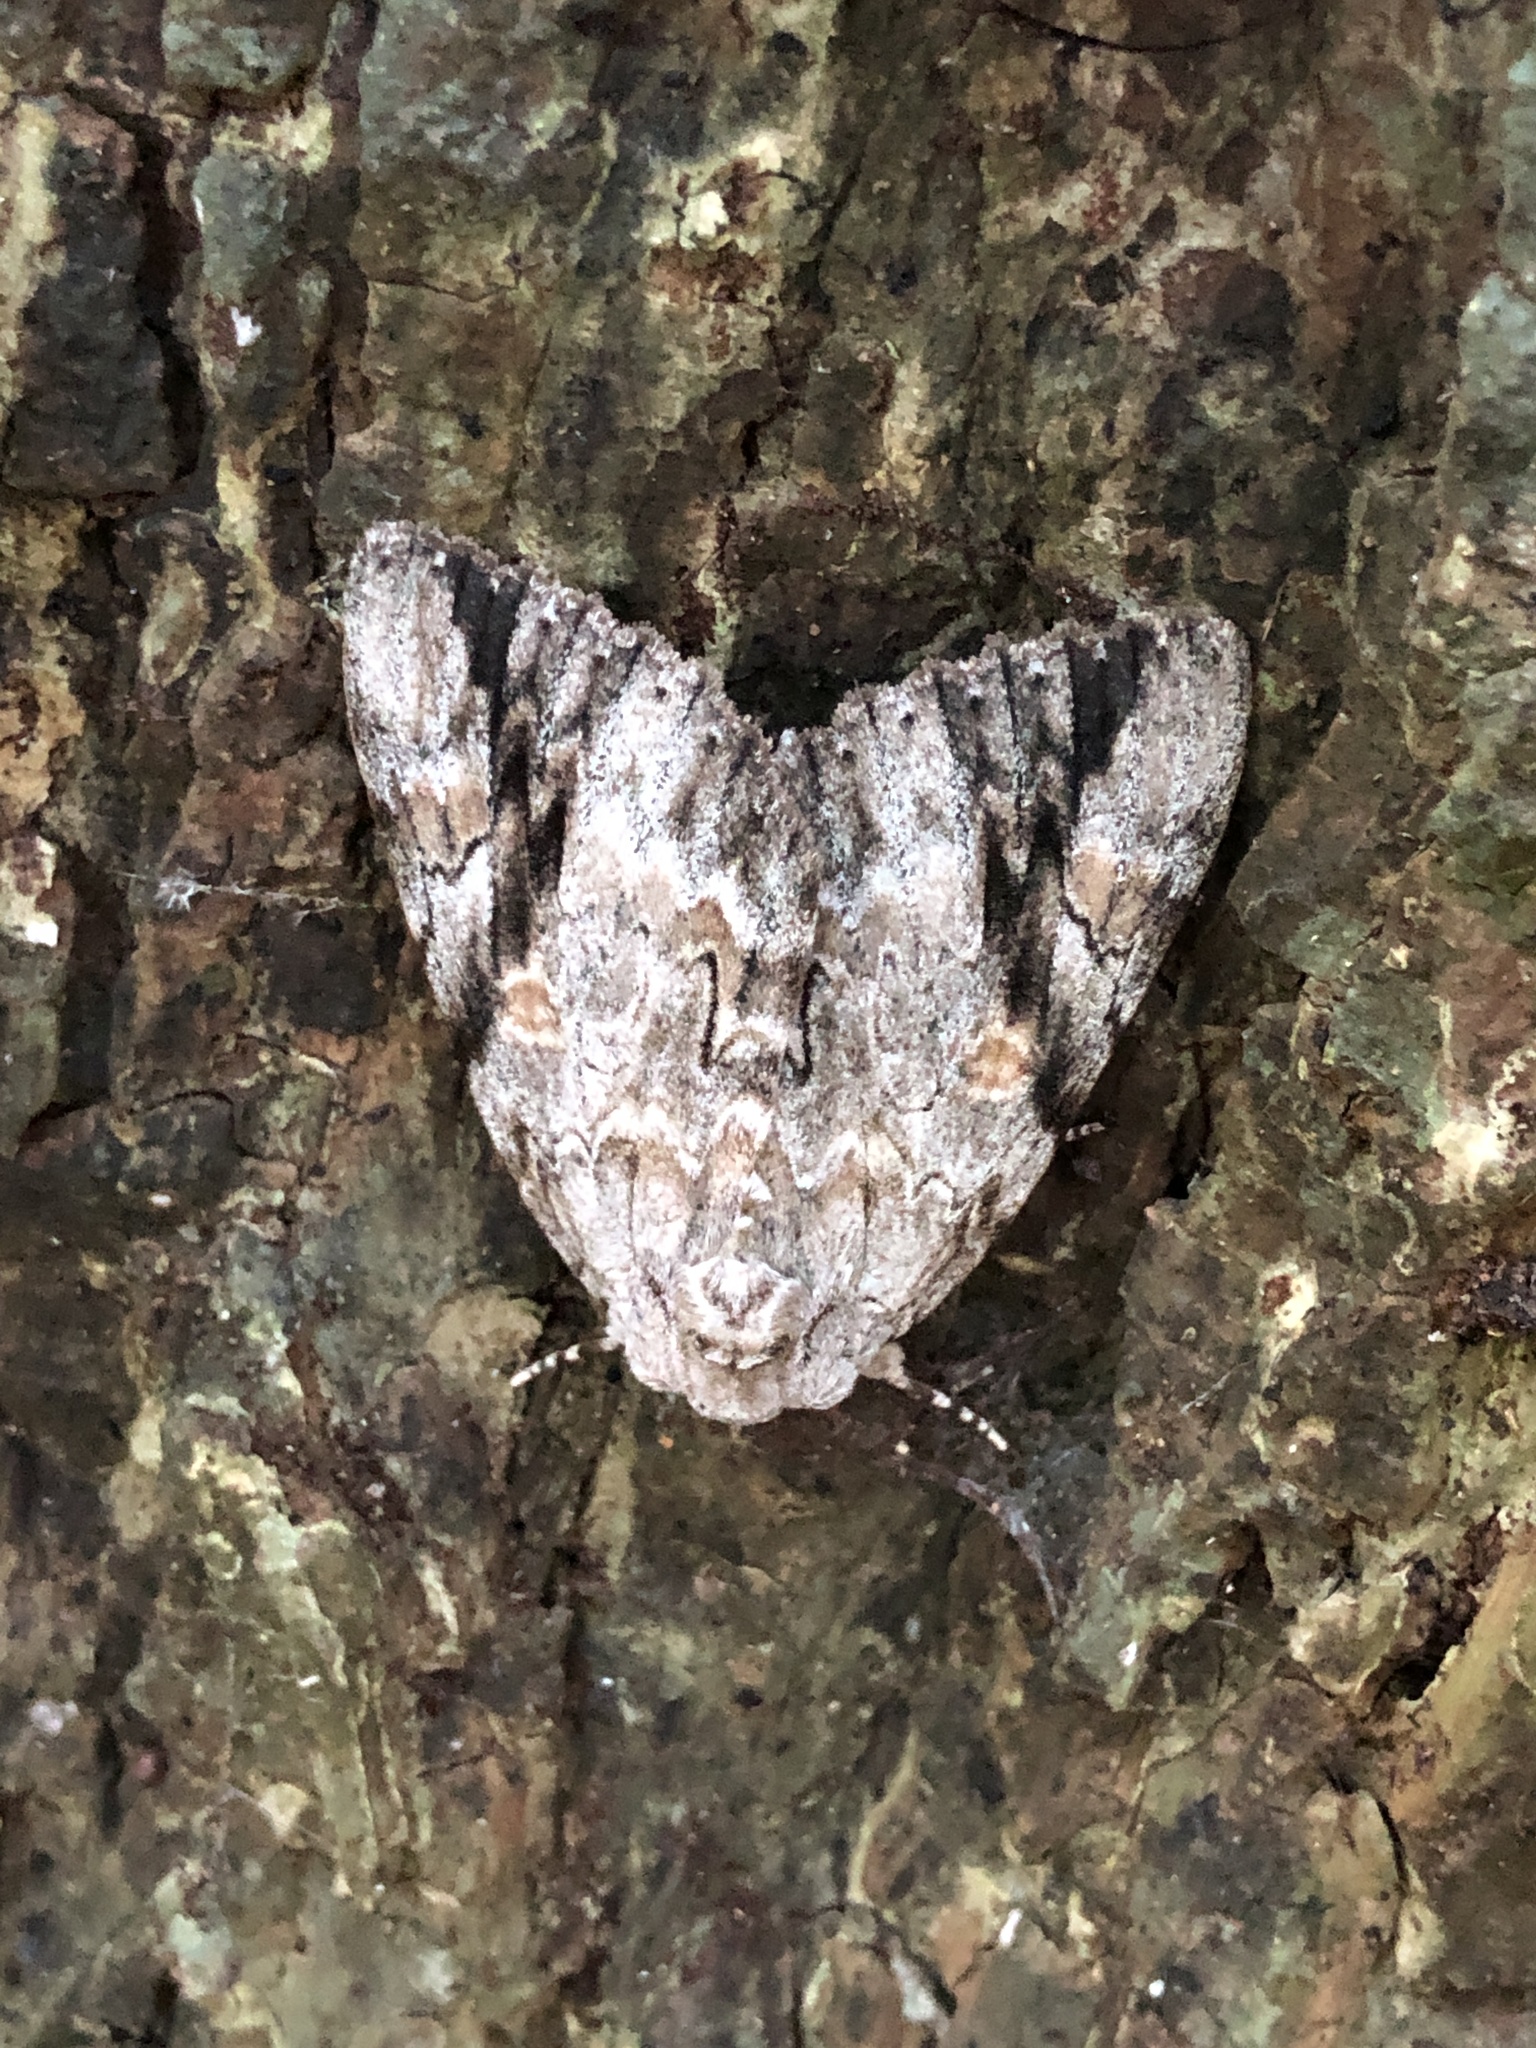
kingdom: Animalia
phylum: Arthropoda
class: Insecta
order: Lepidoptera
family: Erebidae
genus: Catocala
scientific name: Catocala maestosa
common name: Sad underwing
